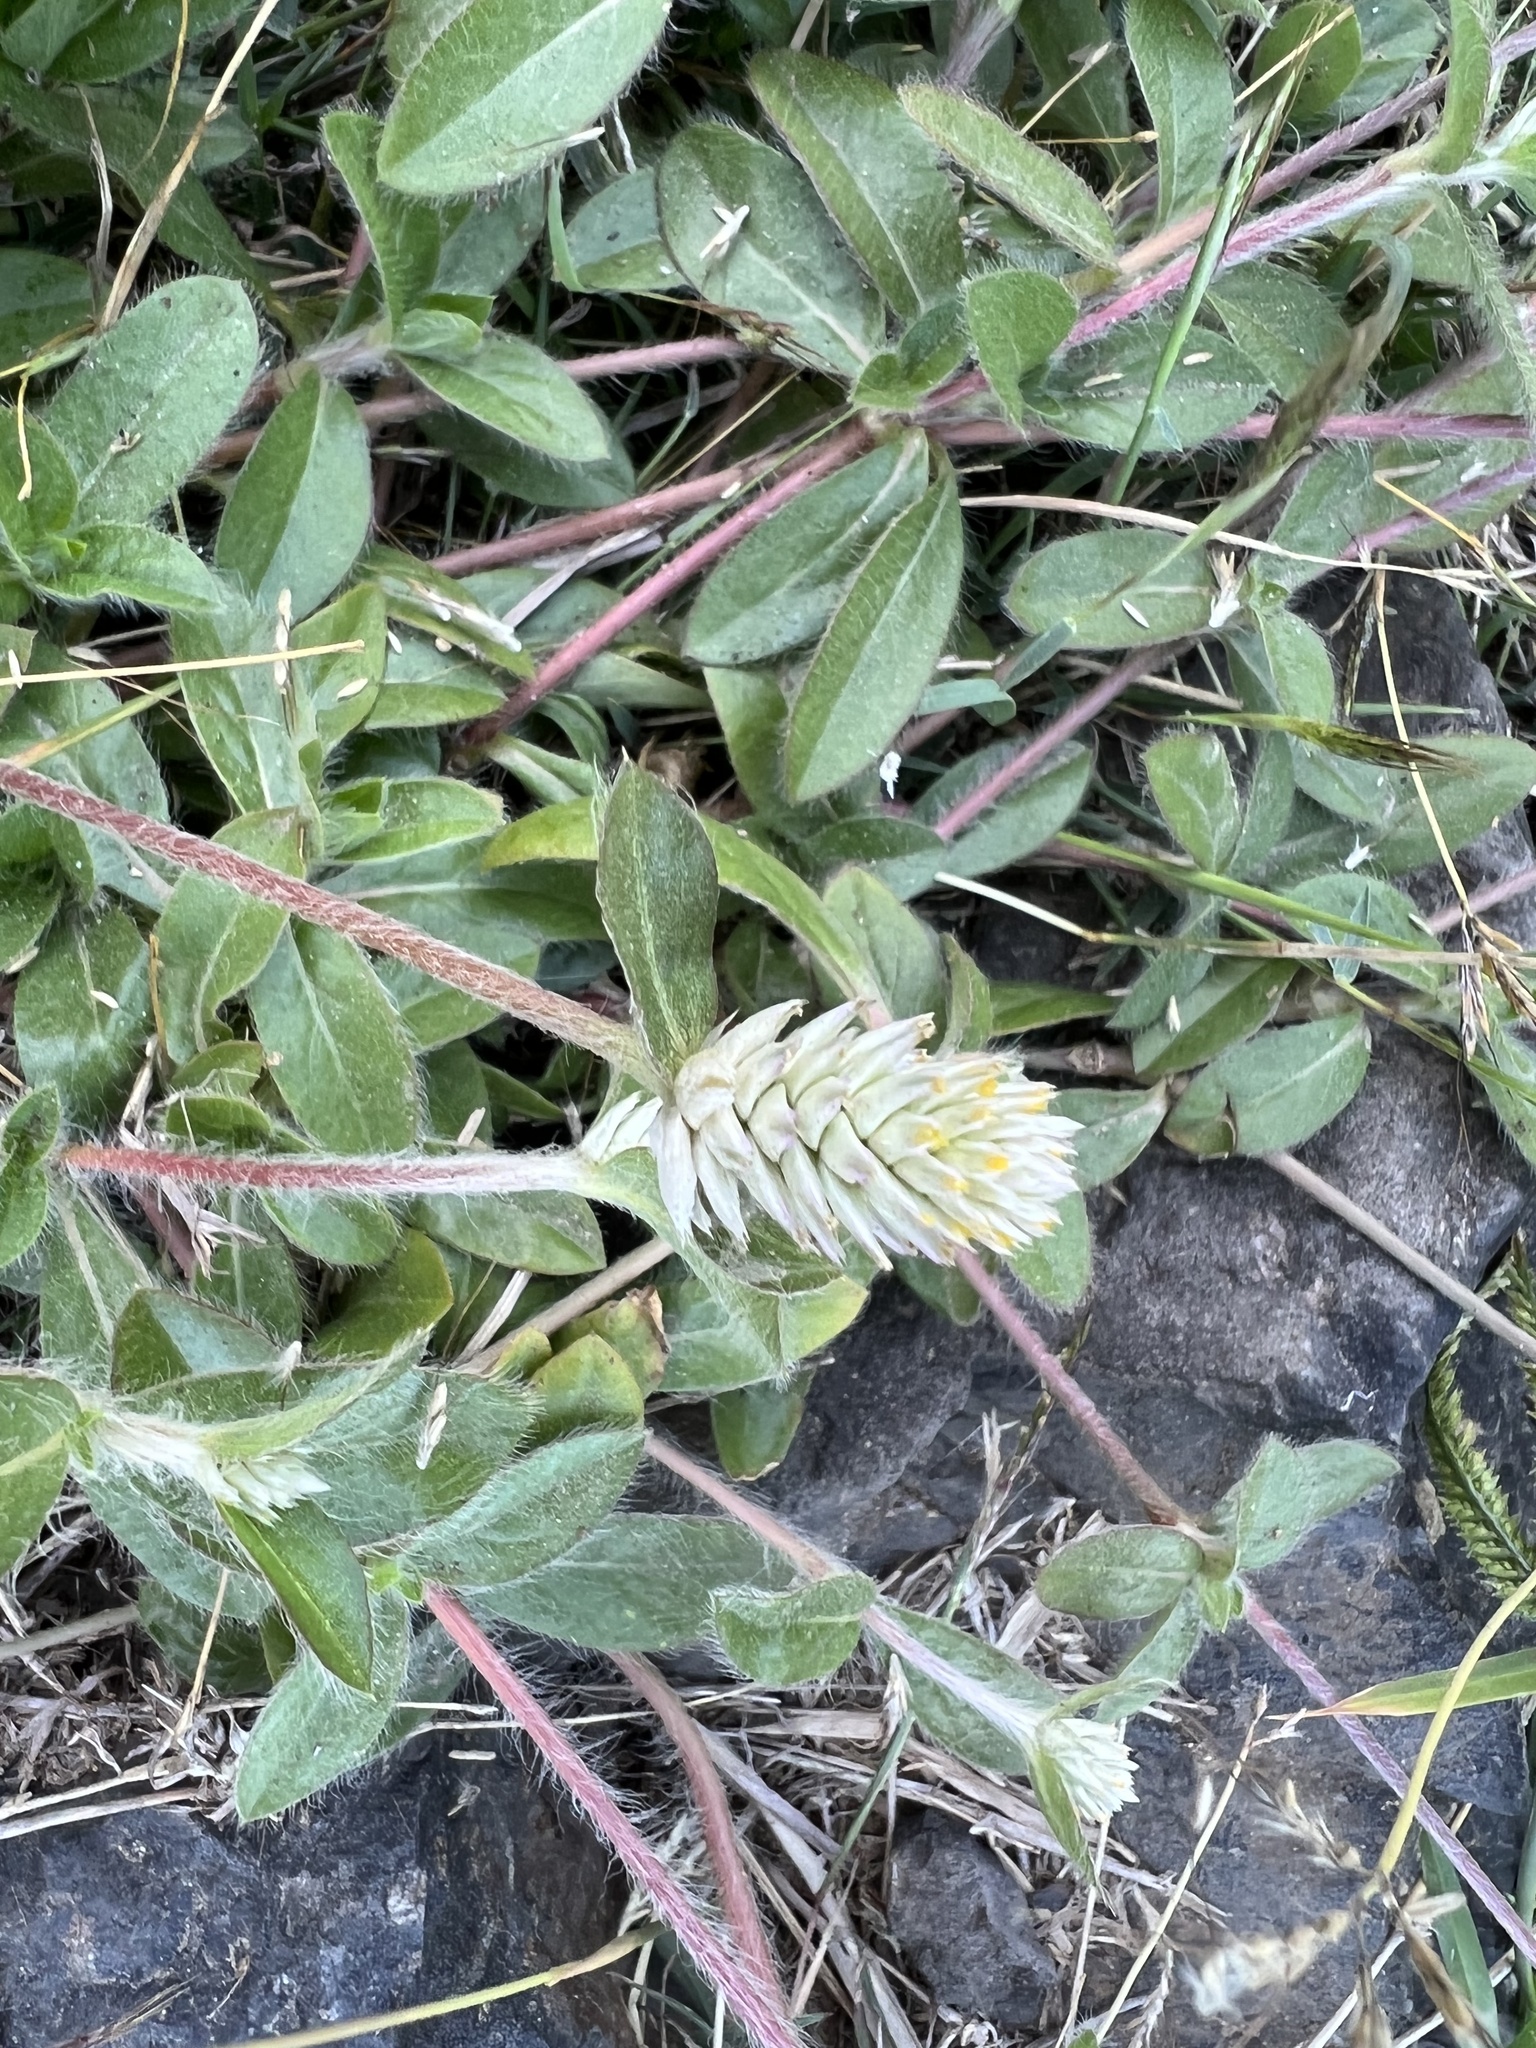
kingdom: Plantae
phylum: Tracheophyta
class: Magnoliopsida
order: Caryophyllales
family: Amaranthaceae
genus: Gomphrena
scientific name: Gomphrena celosioides
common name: Gomphrena-weed
